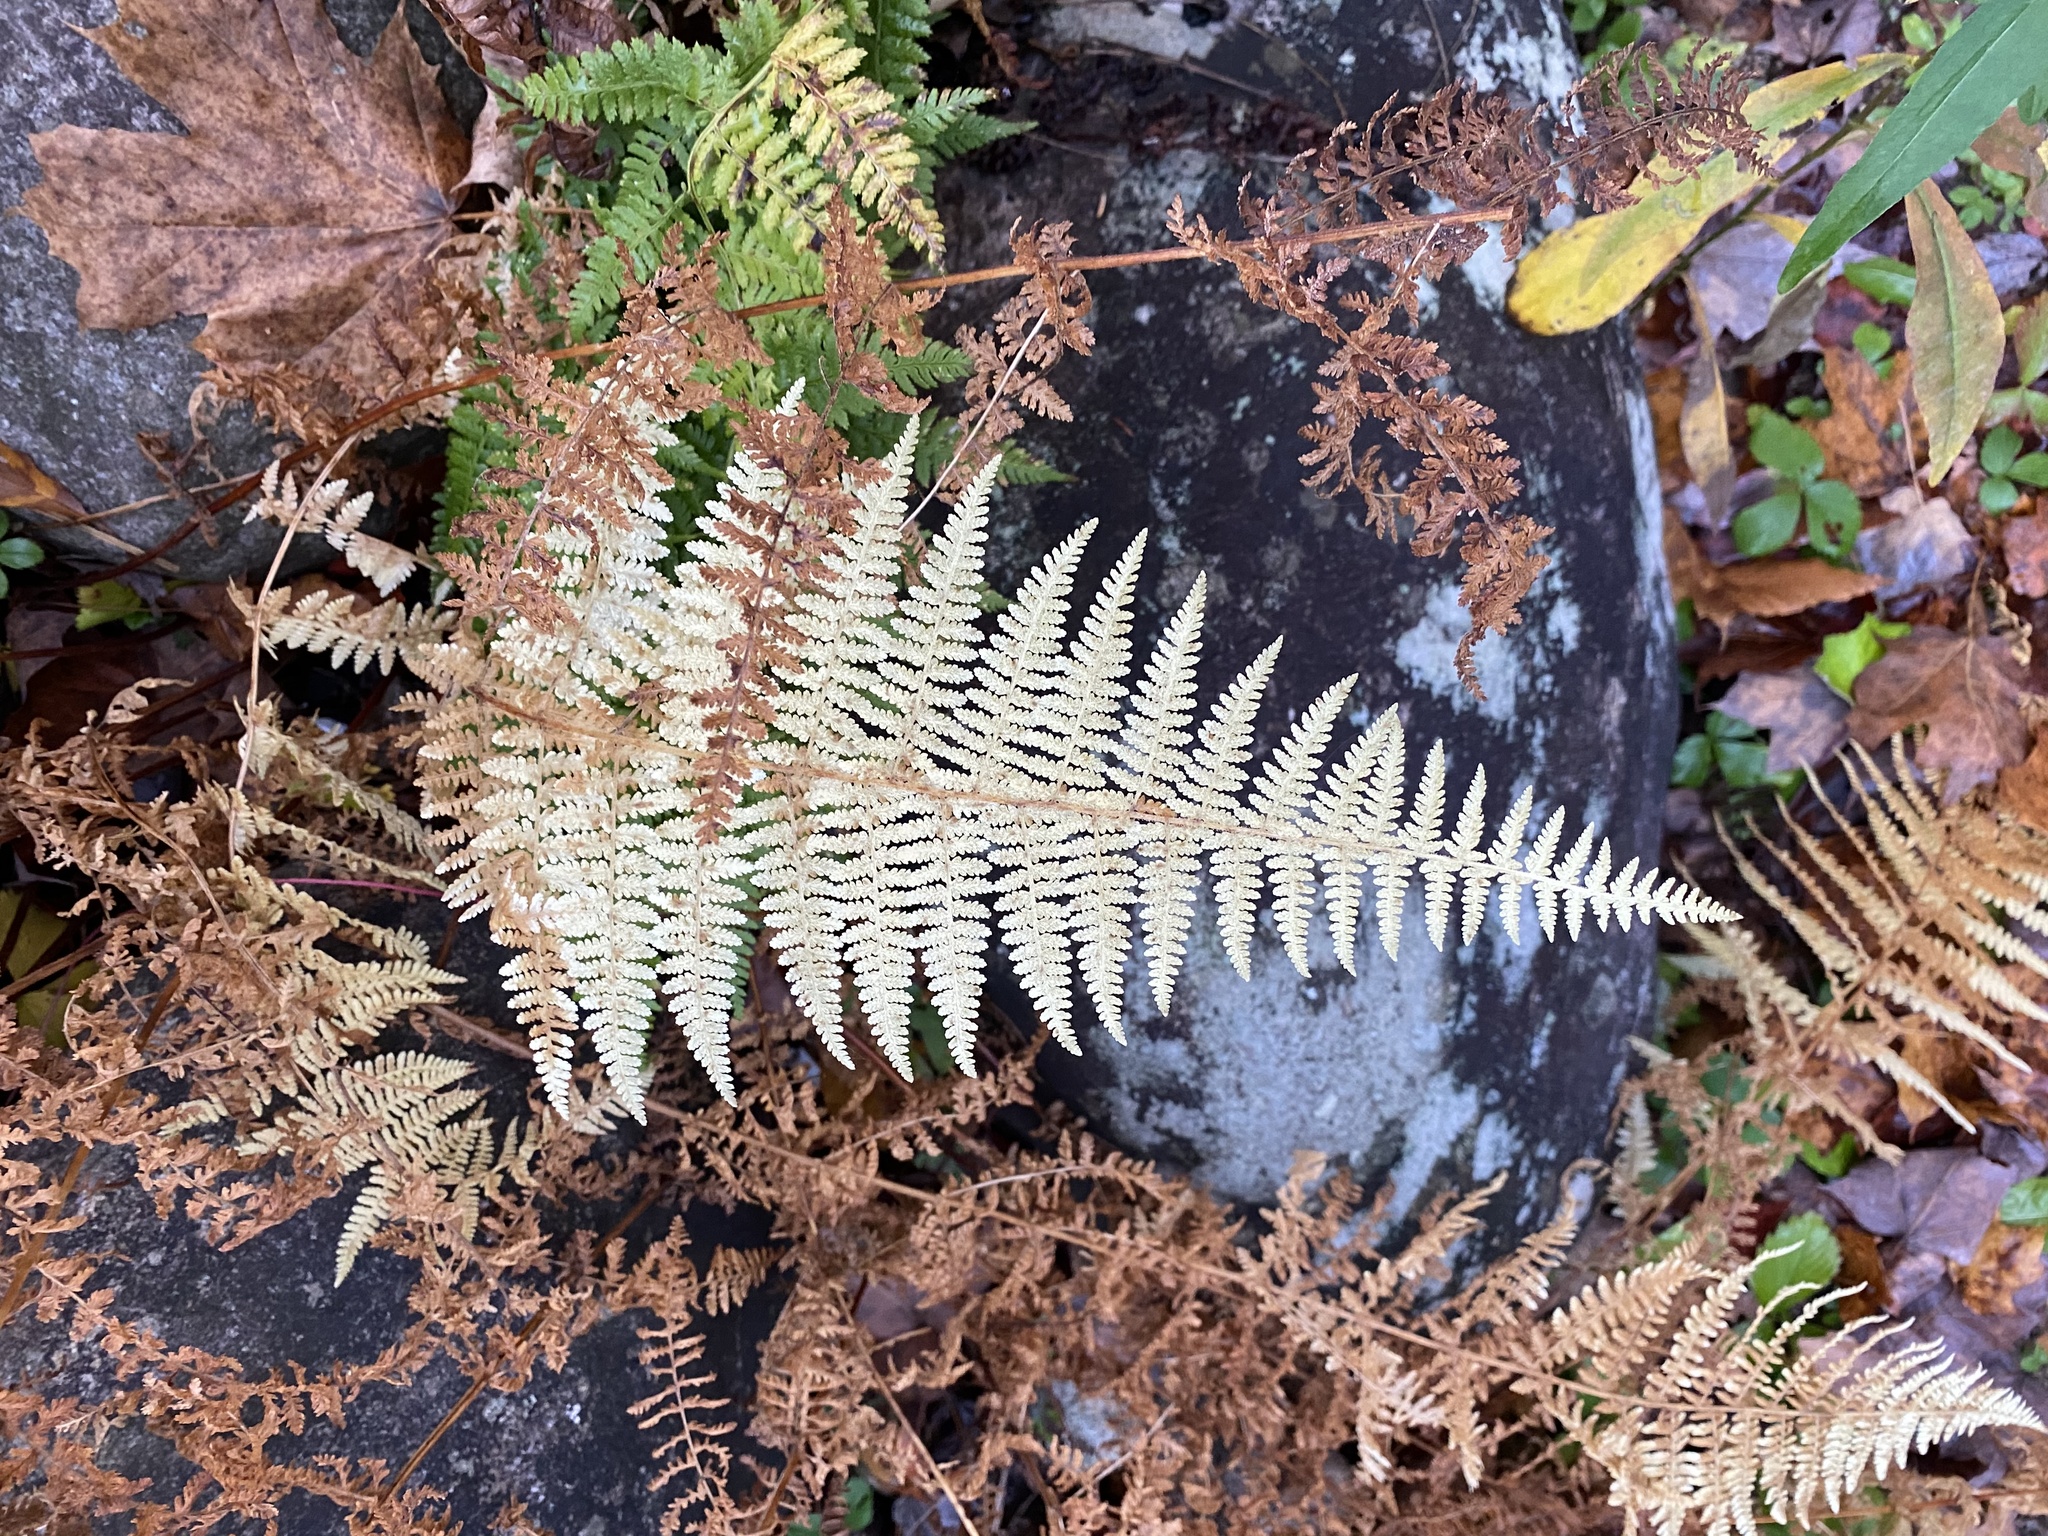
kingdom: Plantae
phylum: Tracheophyta
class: Polypodiopsida
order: Polypodiales
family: Dennstaedtiaceae
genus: Sitobolium
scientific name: Sitobolium punctilobum
